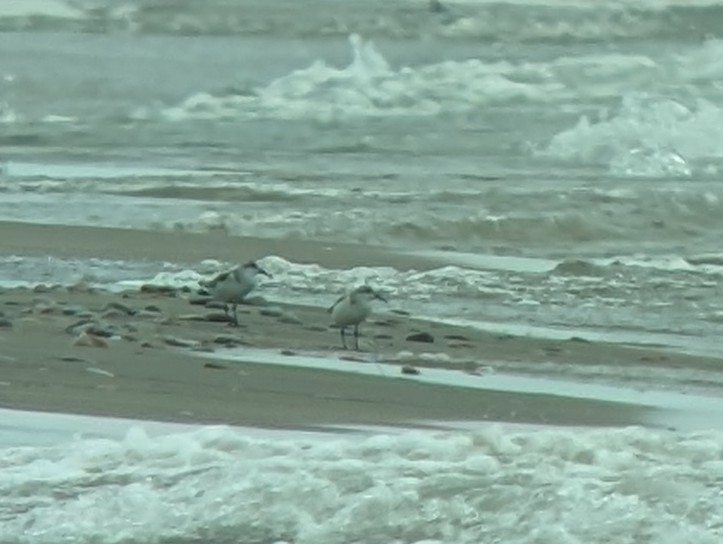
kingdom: Animalia
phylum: Chordata
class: Aves
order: Charadriiformes
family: Scolopacidae
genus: Calidris
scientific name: Calidris alba
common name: Sanderling
